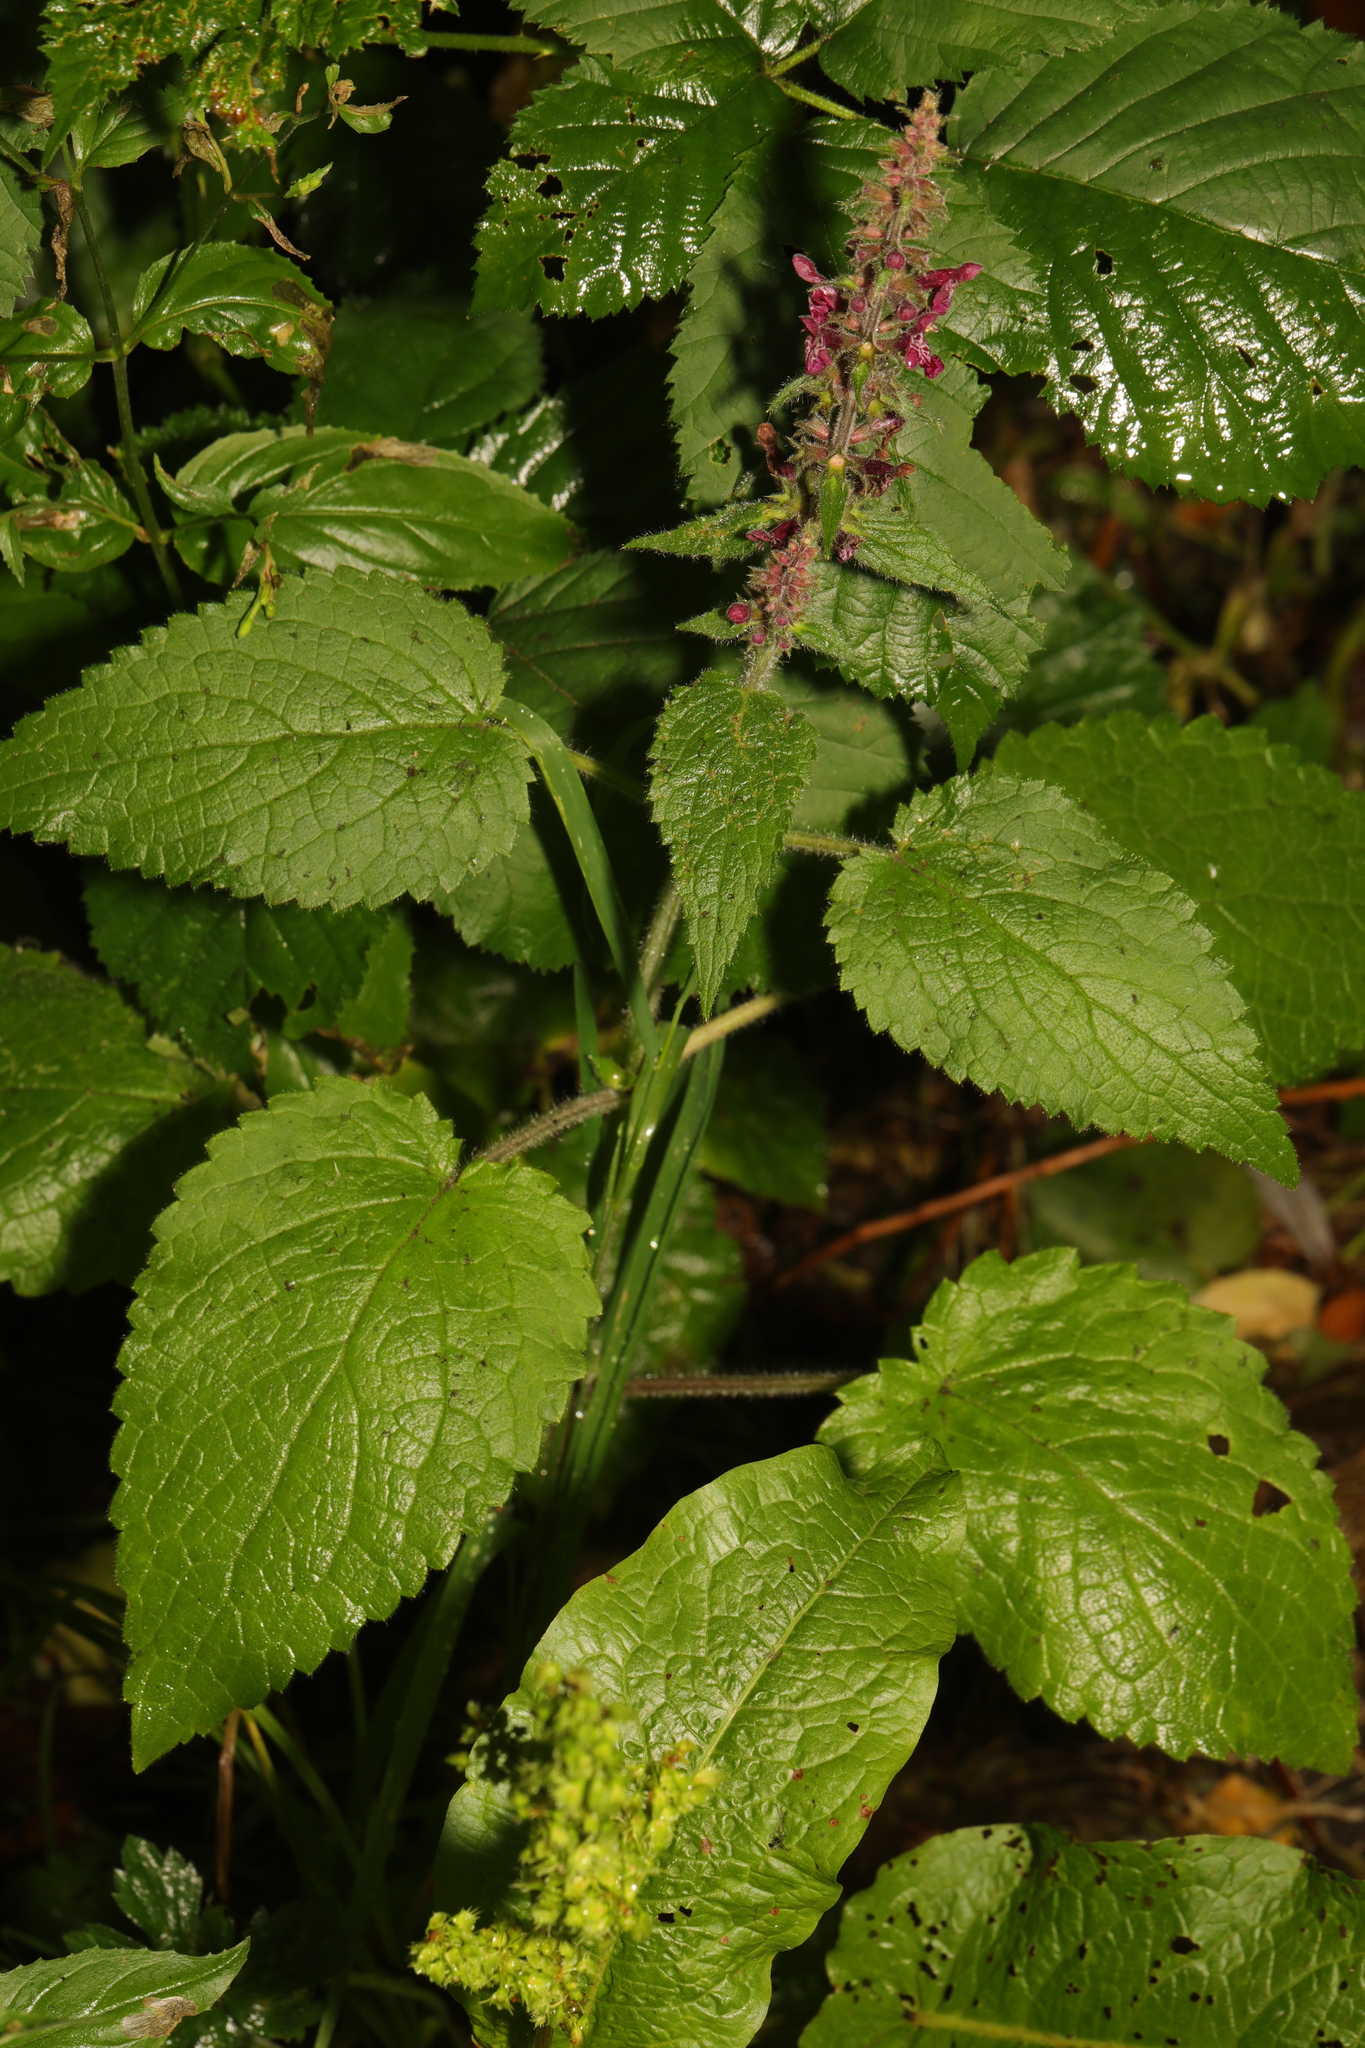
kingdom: Plantae
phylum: Tracheophyta
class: Magnoliopsida
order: Lamiales
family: Lamiaceae
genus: Stachys
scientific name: Stachys sylvatica
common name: Hedge woundwort
